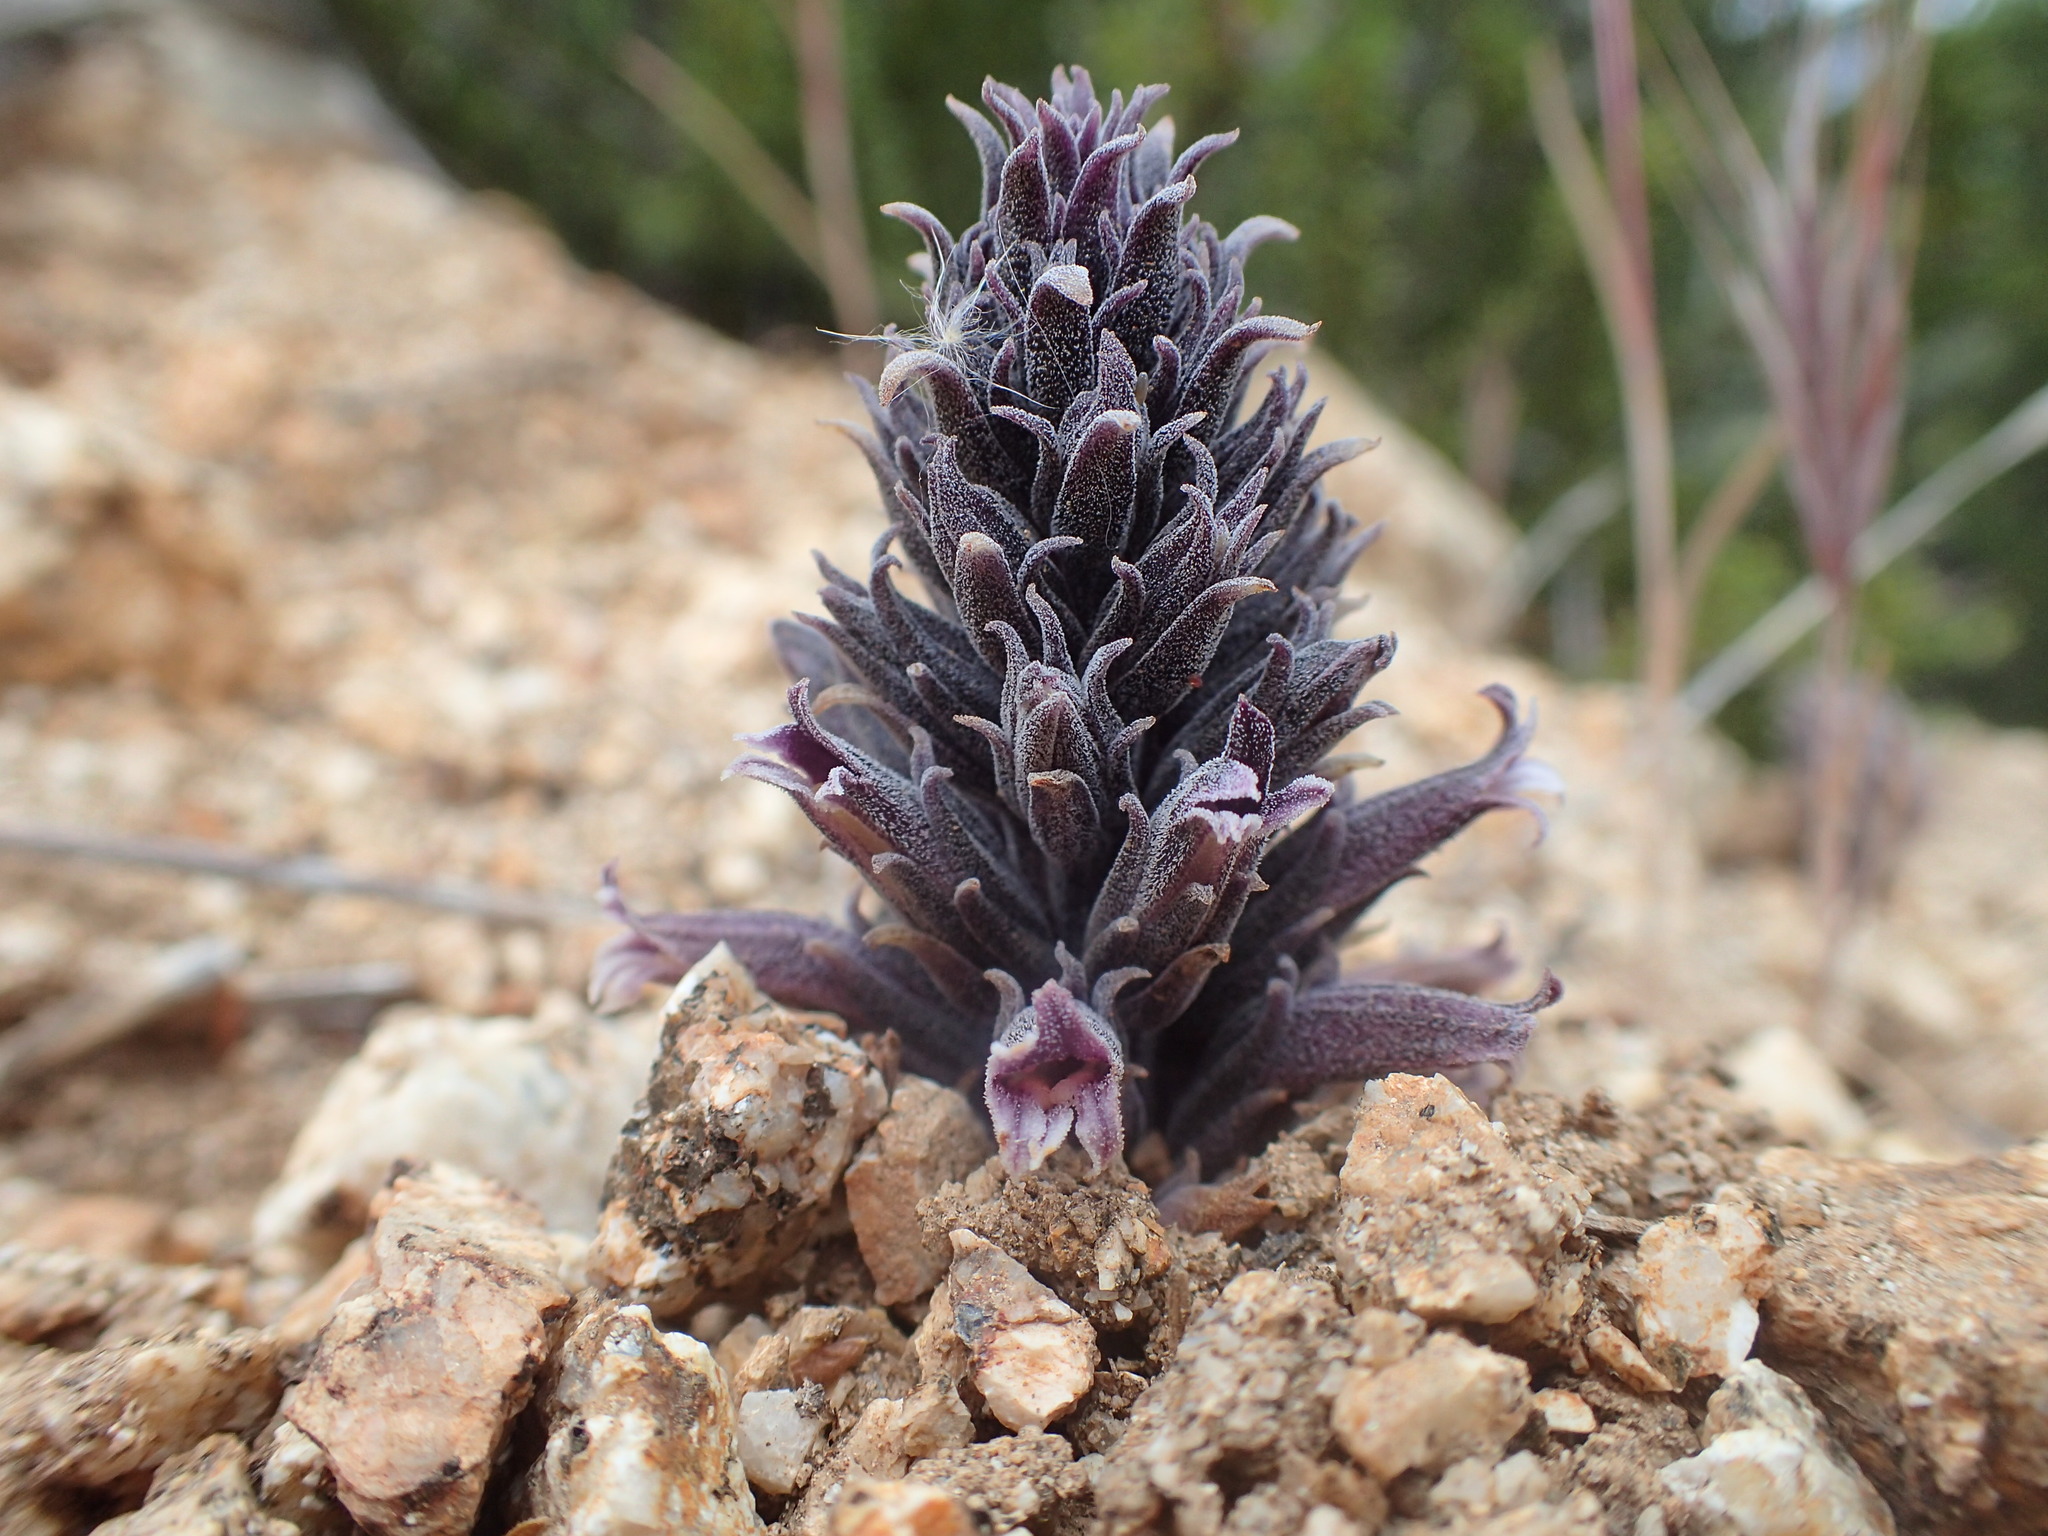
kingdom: Plantae
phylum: Tracheophyta
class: Magnoliopsida
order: Lamiales
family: Orobanchaceae
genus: Aphyllon
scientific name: Aphyllon tuberosum
